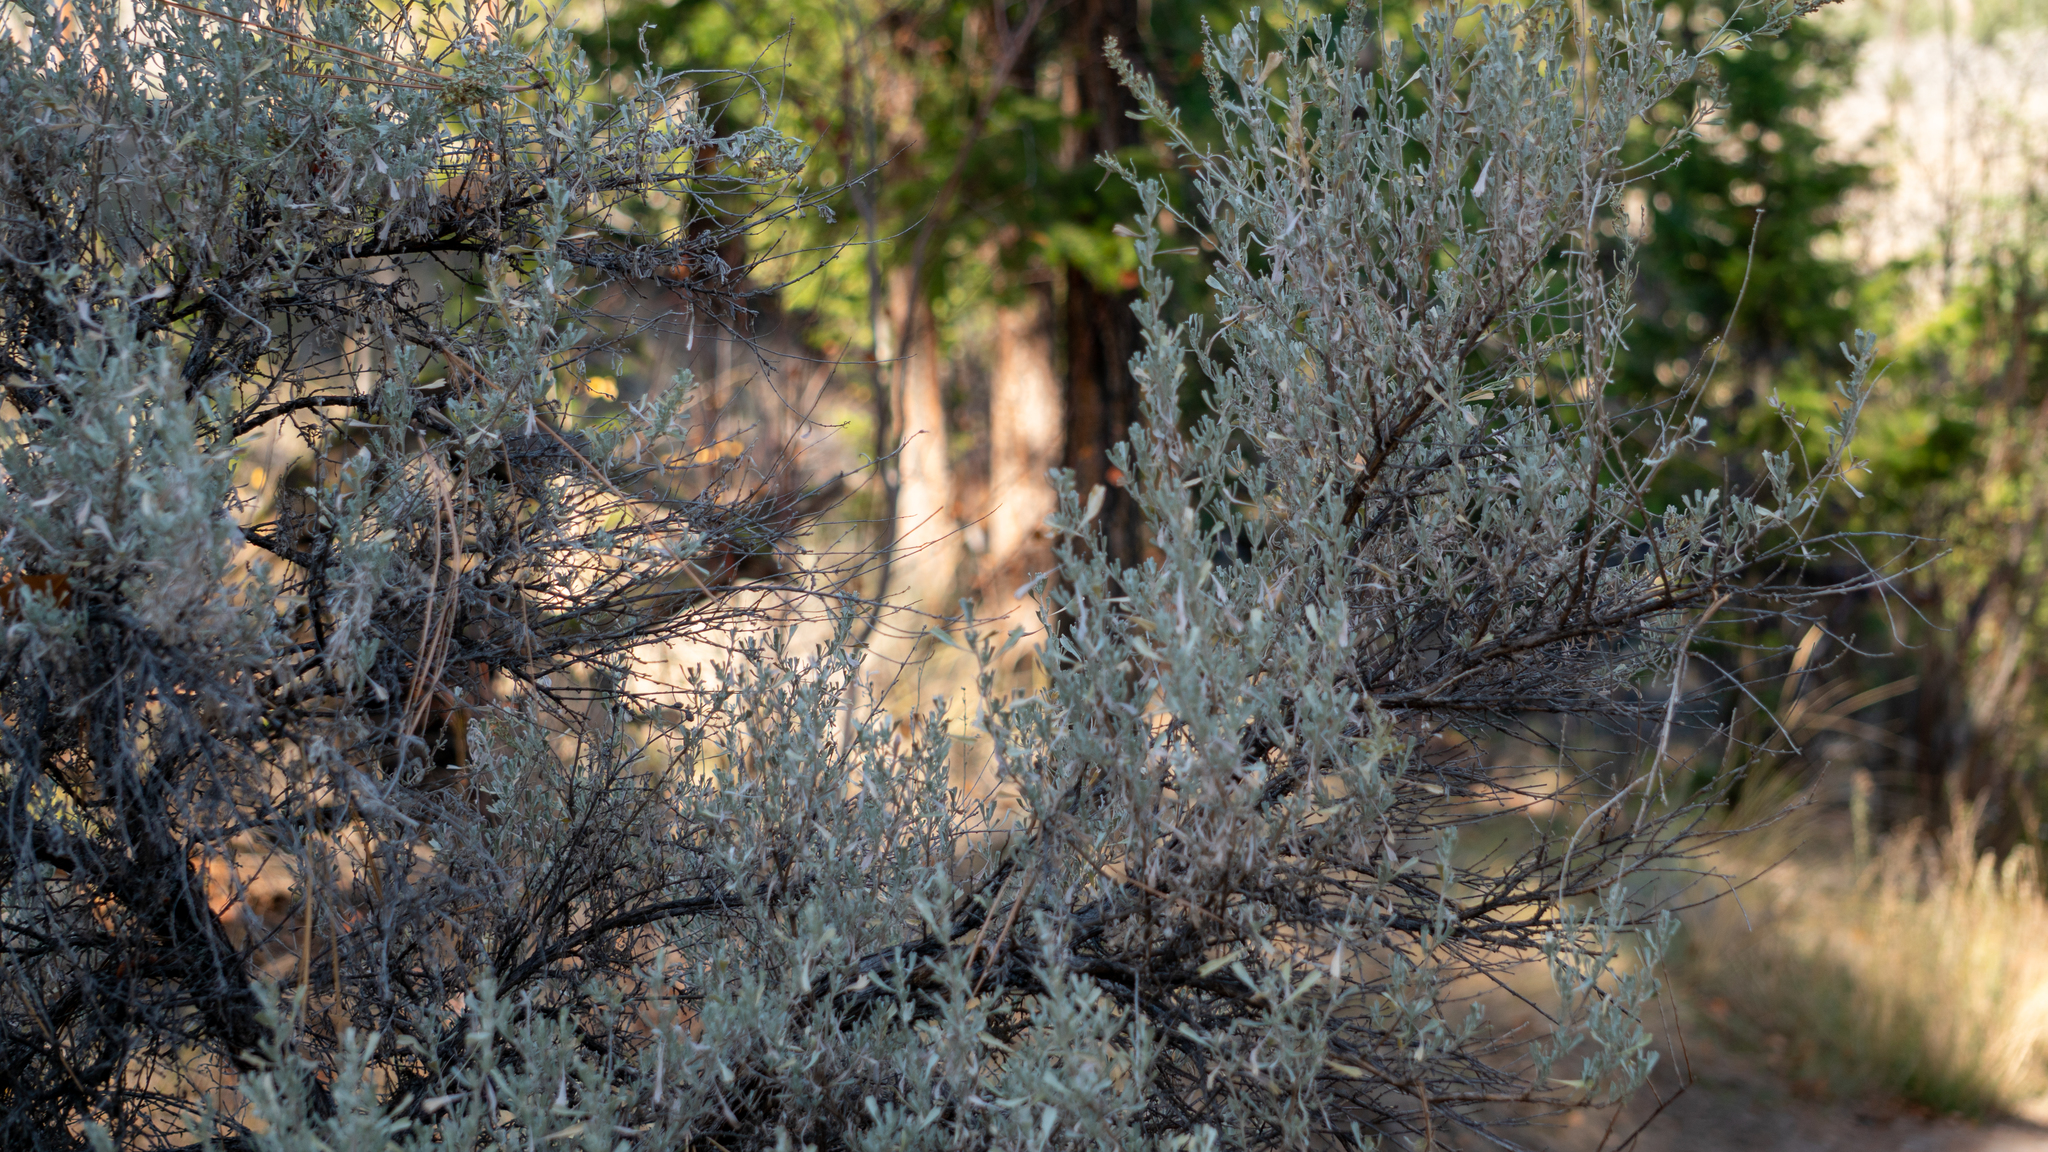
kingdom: Plantae
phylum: Tracheophyta
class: Magnoliopsida
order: Asterales
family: Asteraceae
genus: Artemisia
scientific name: Artemisia tridentata
